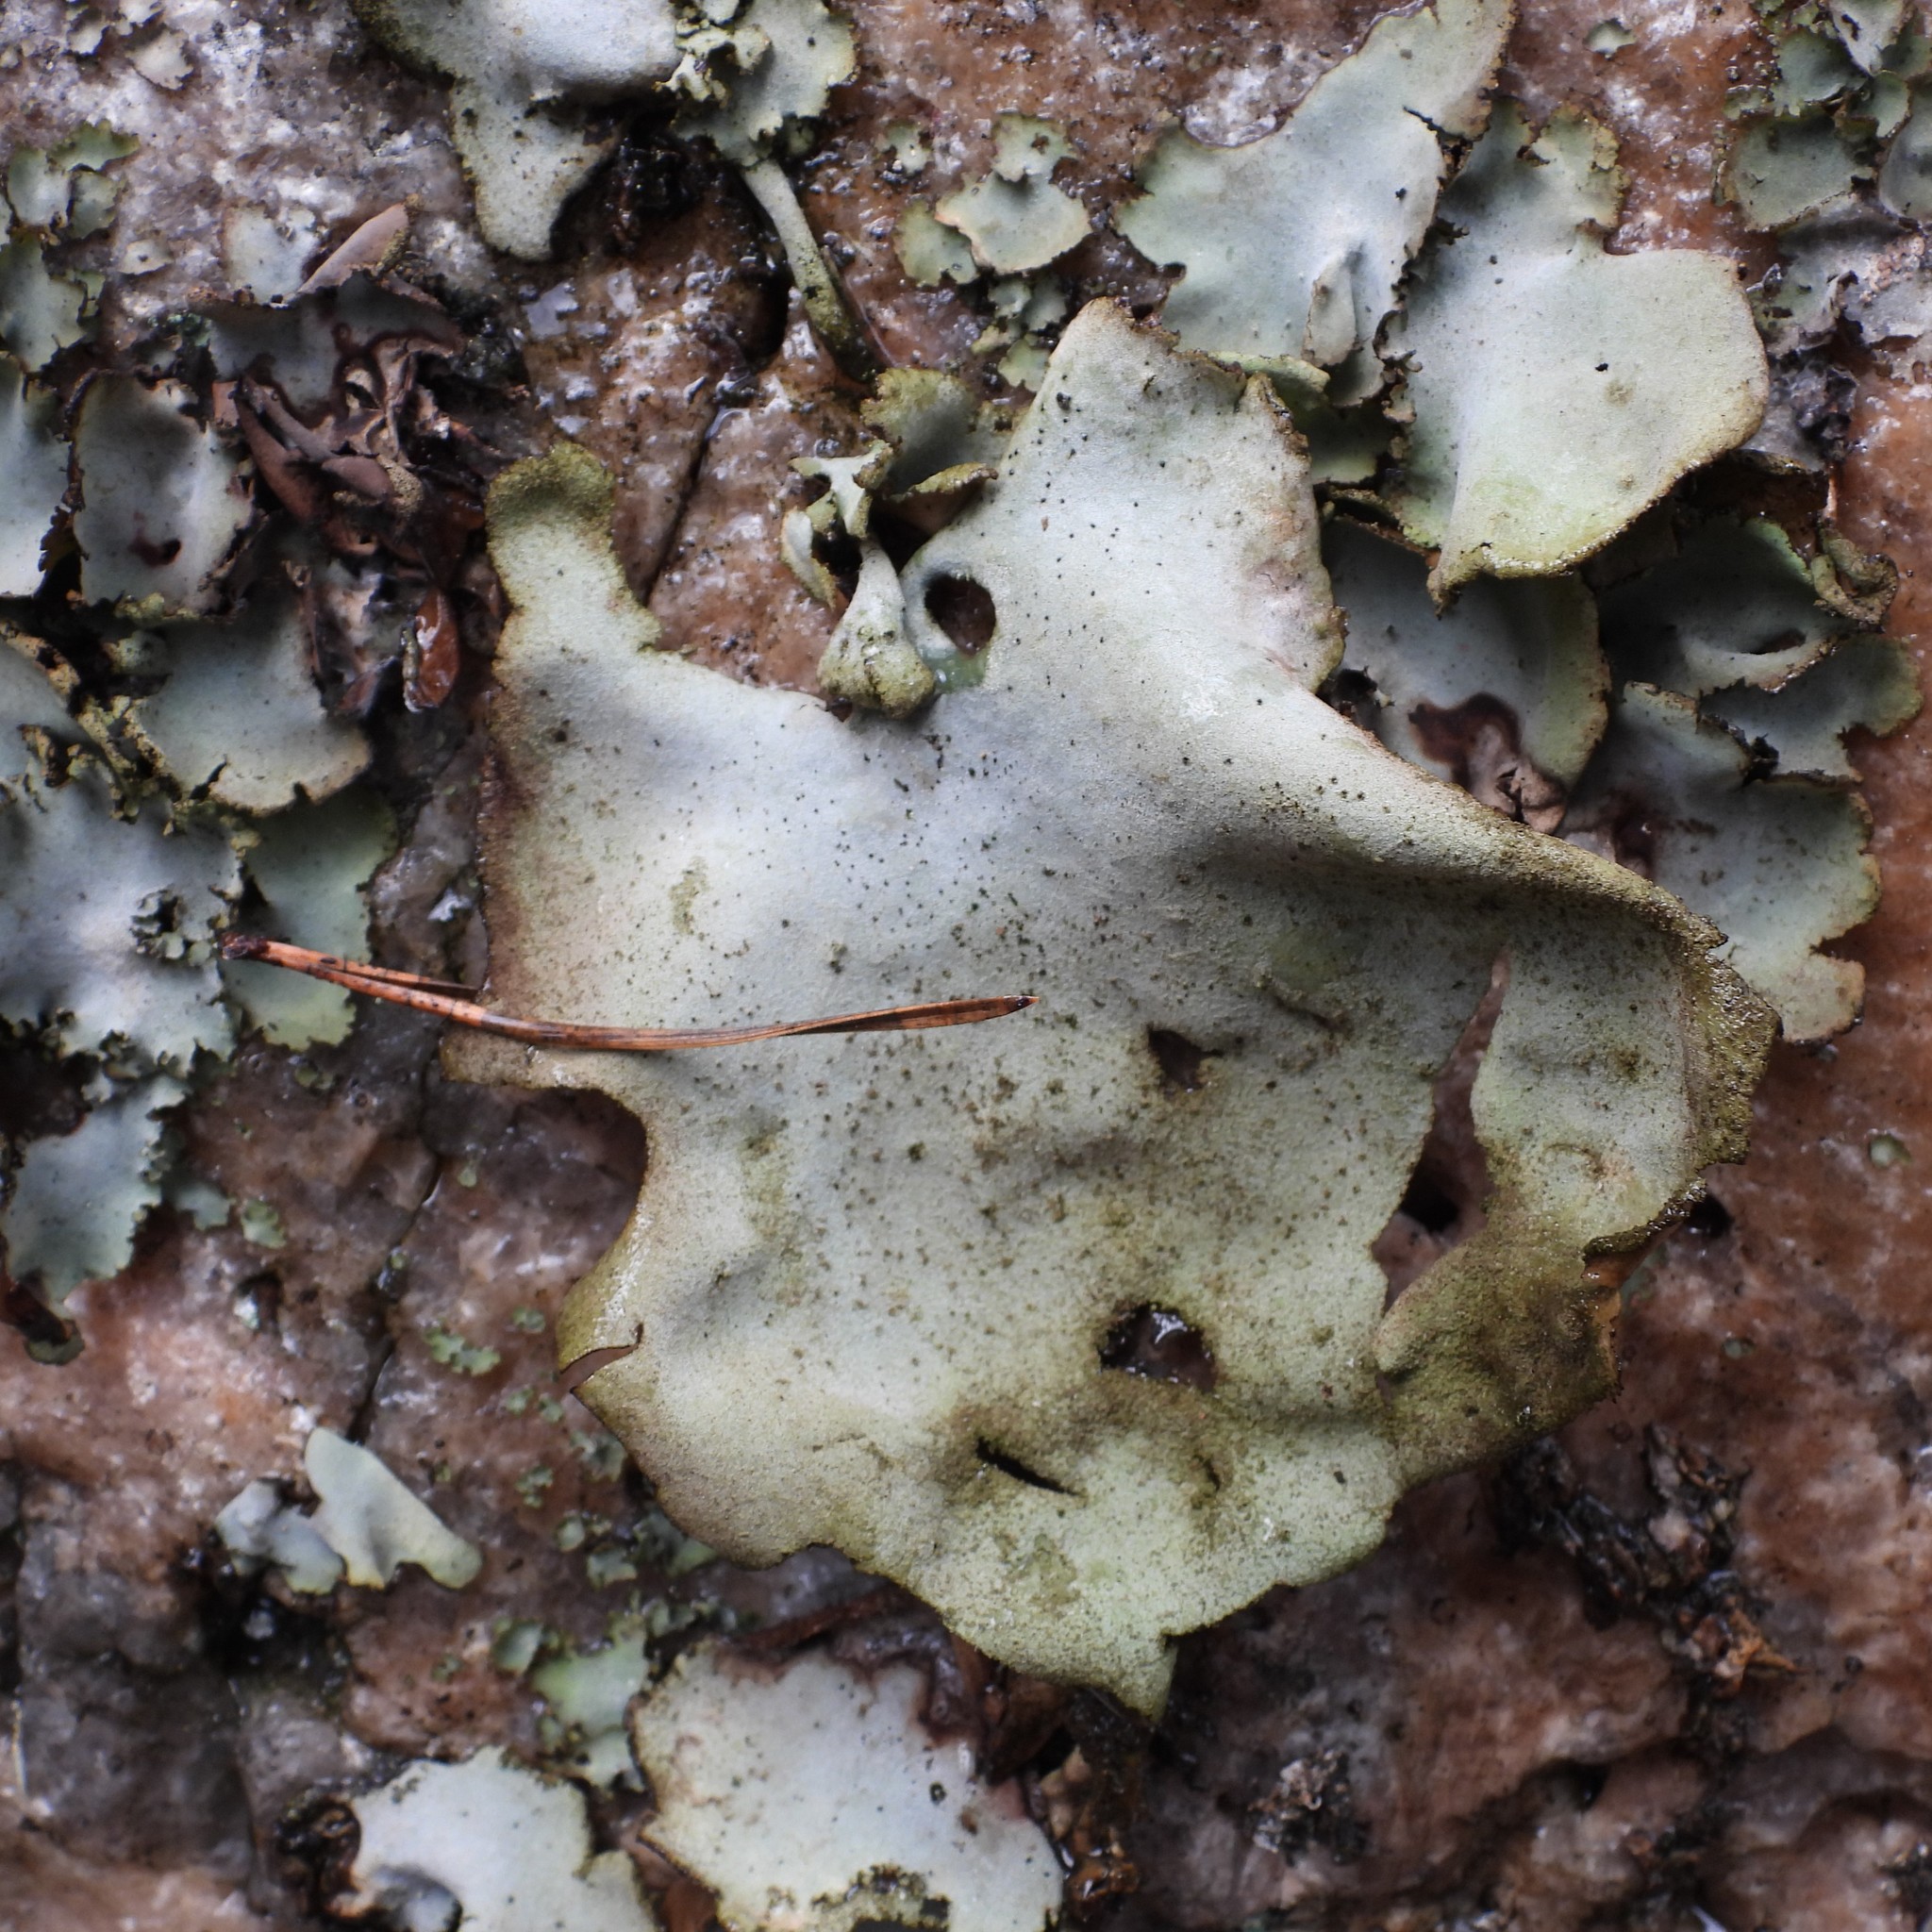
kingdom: Fungi
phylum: Ascomycota
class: Lecanoromycetes
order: Umbilicariales
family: Umbilicariaceae
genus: Umbilicaria
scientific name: Umbilicaria hirsuta
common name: Granulating rocktripe lichen
